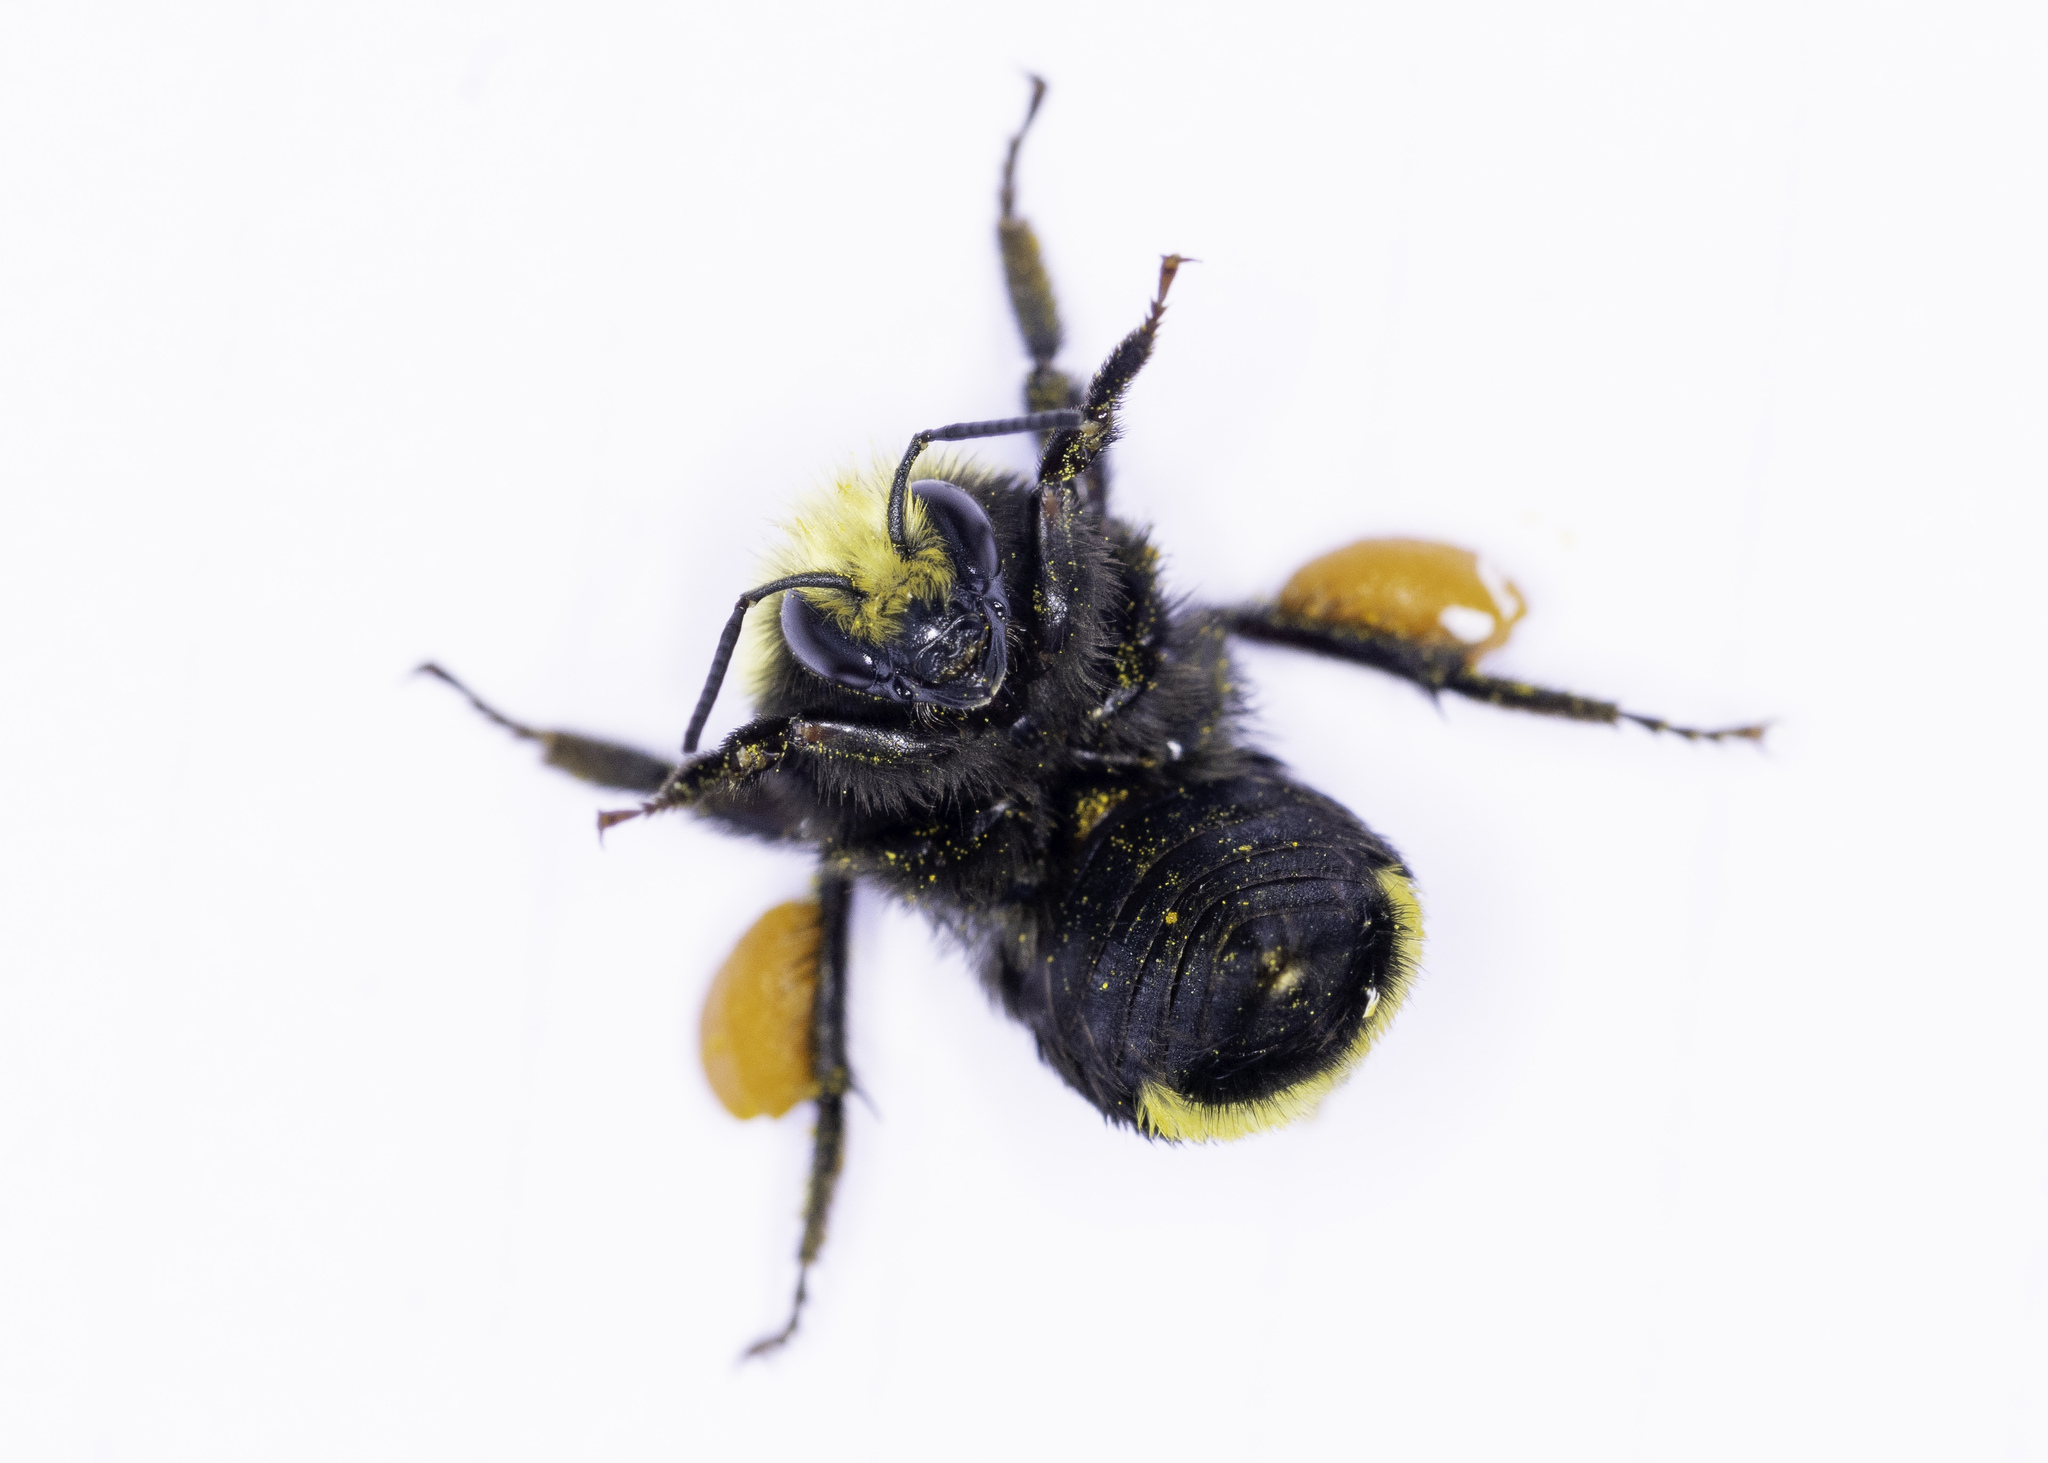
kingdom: Animalia
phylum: Arthropoda
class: Insecta
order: Hymenoptera
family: Apidae
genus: Bombus
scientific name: Bombus vosnesenskii
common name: Vosnesensky bumble bee
